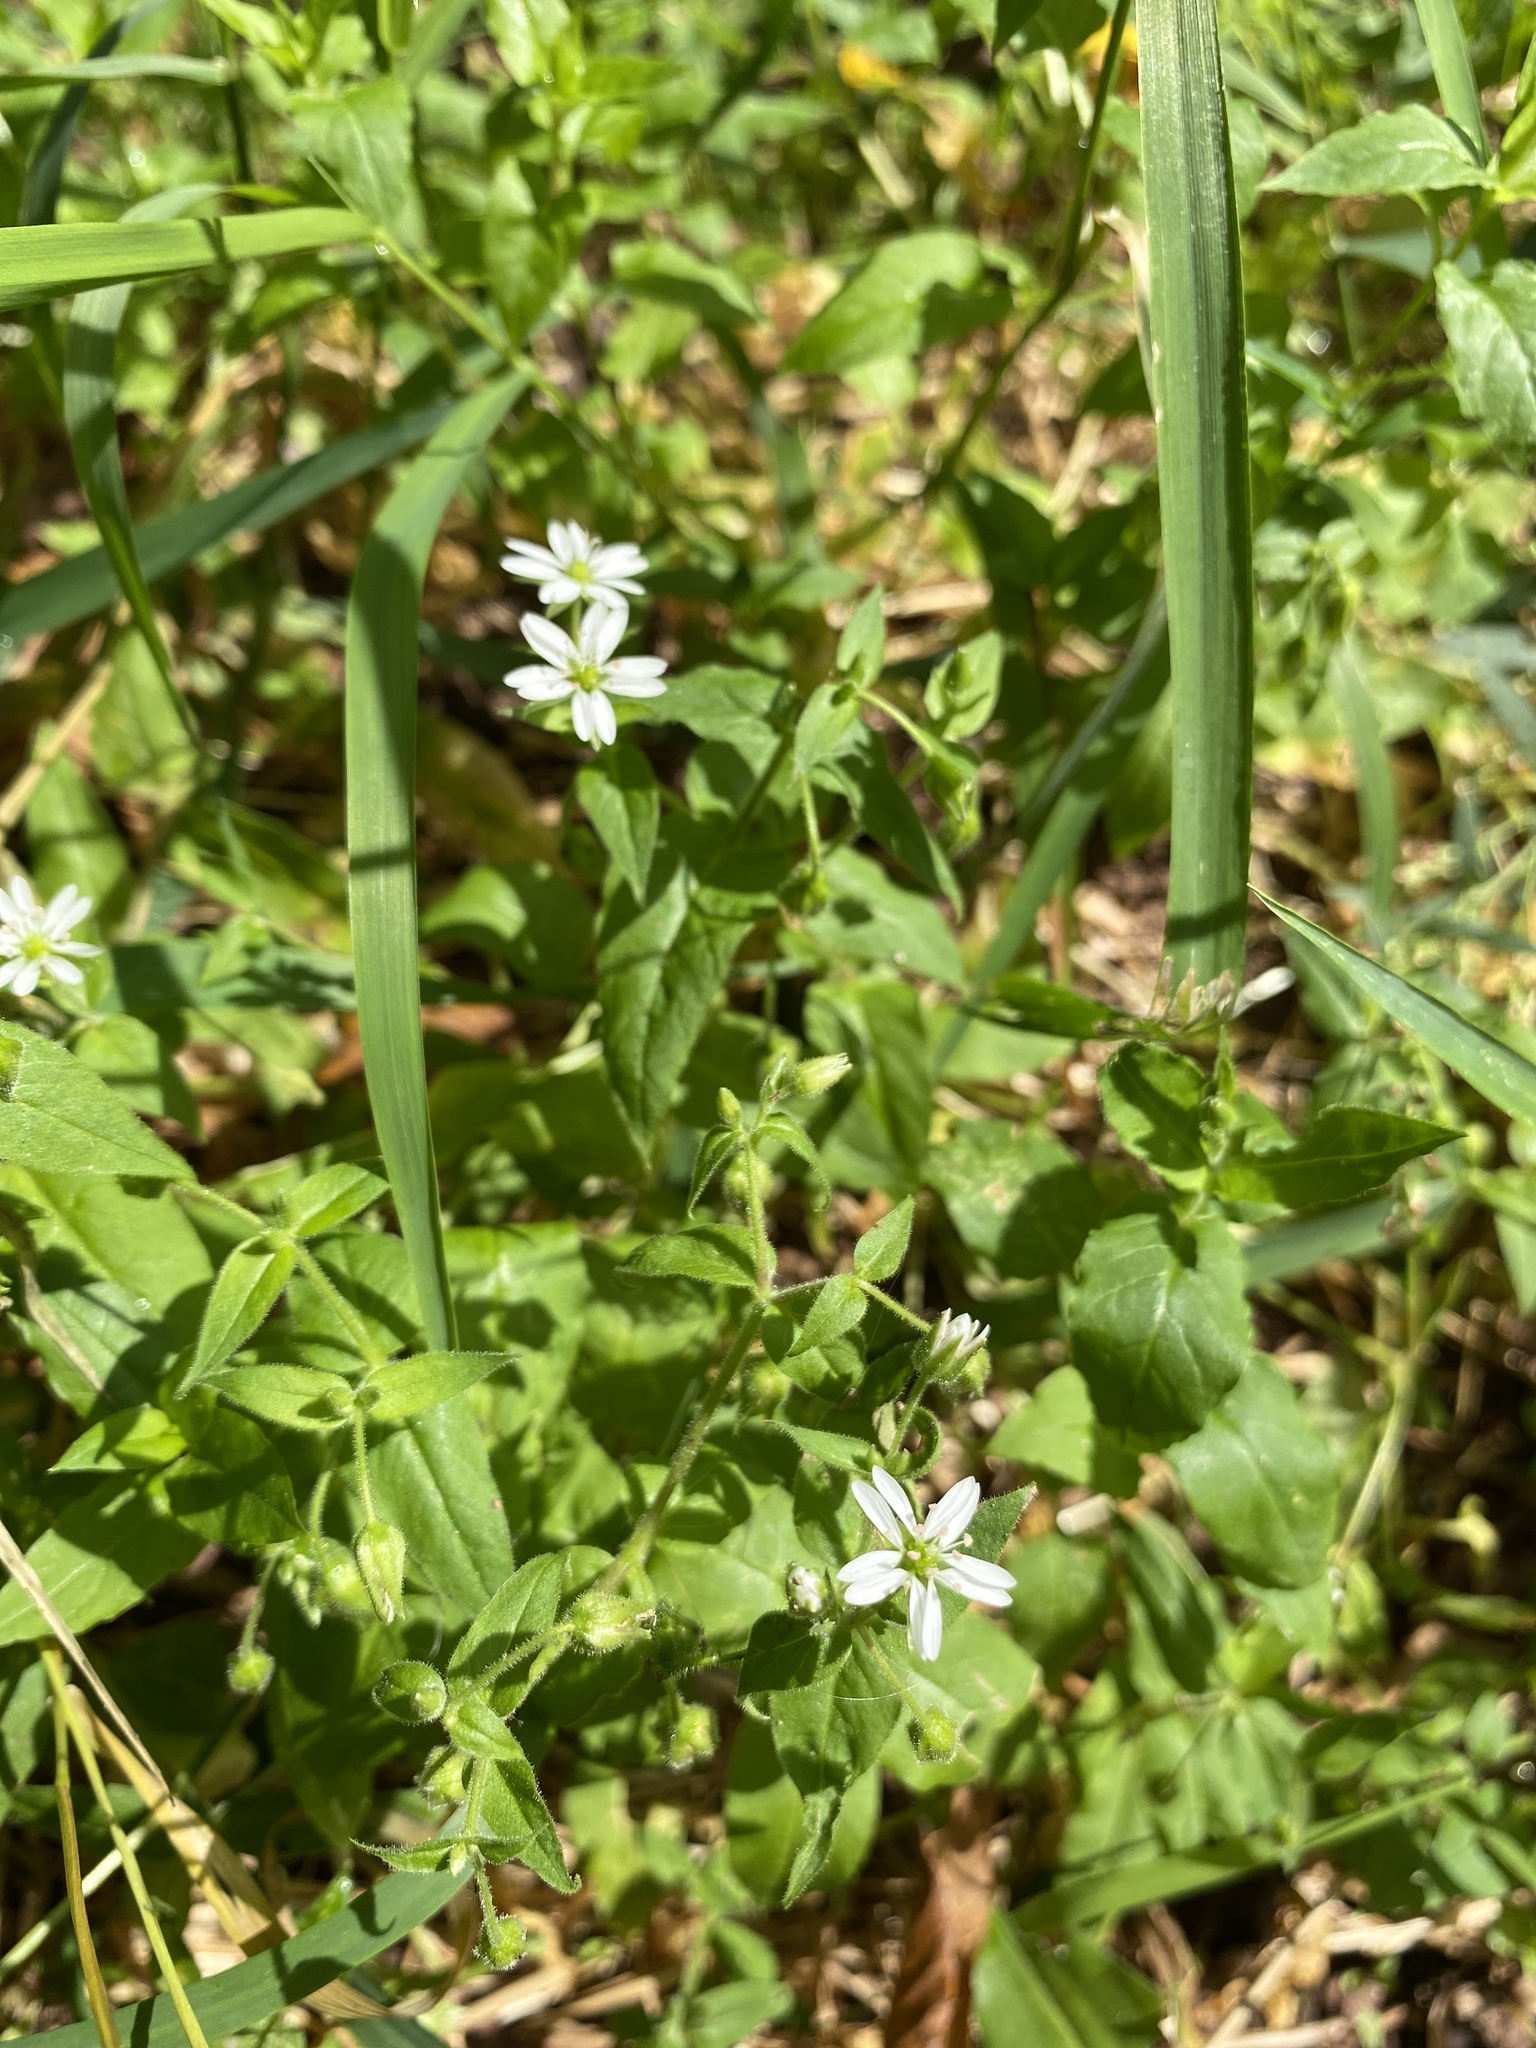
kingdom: Plantae
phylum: Tracheophyta
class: Magnoliopsida
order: Caryophyllales
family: Caryophyllaceae
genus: Stellaria
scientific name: Stellaria aquatica
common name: Water chickweed
